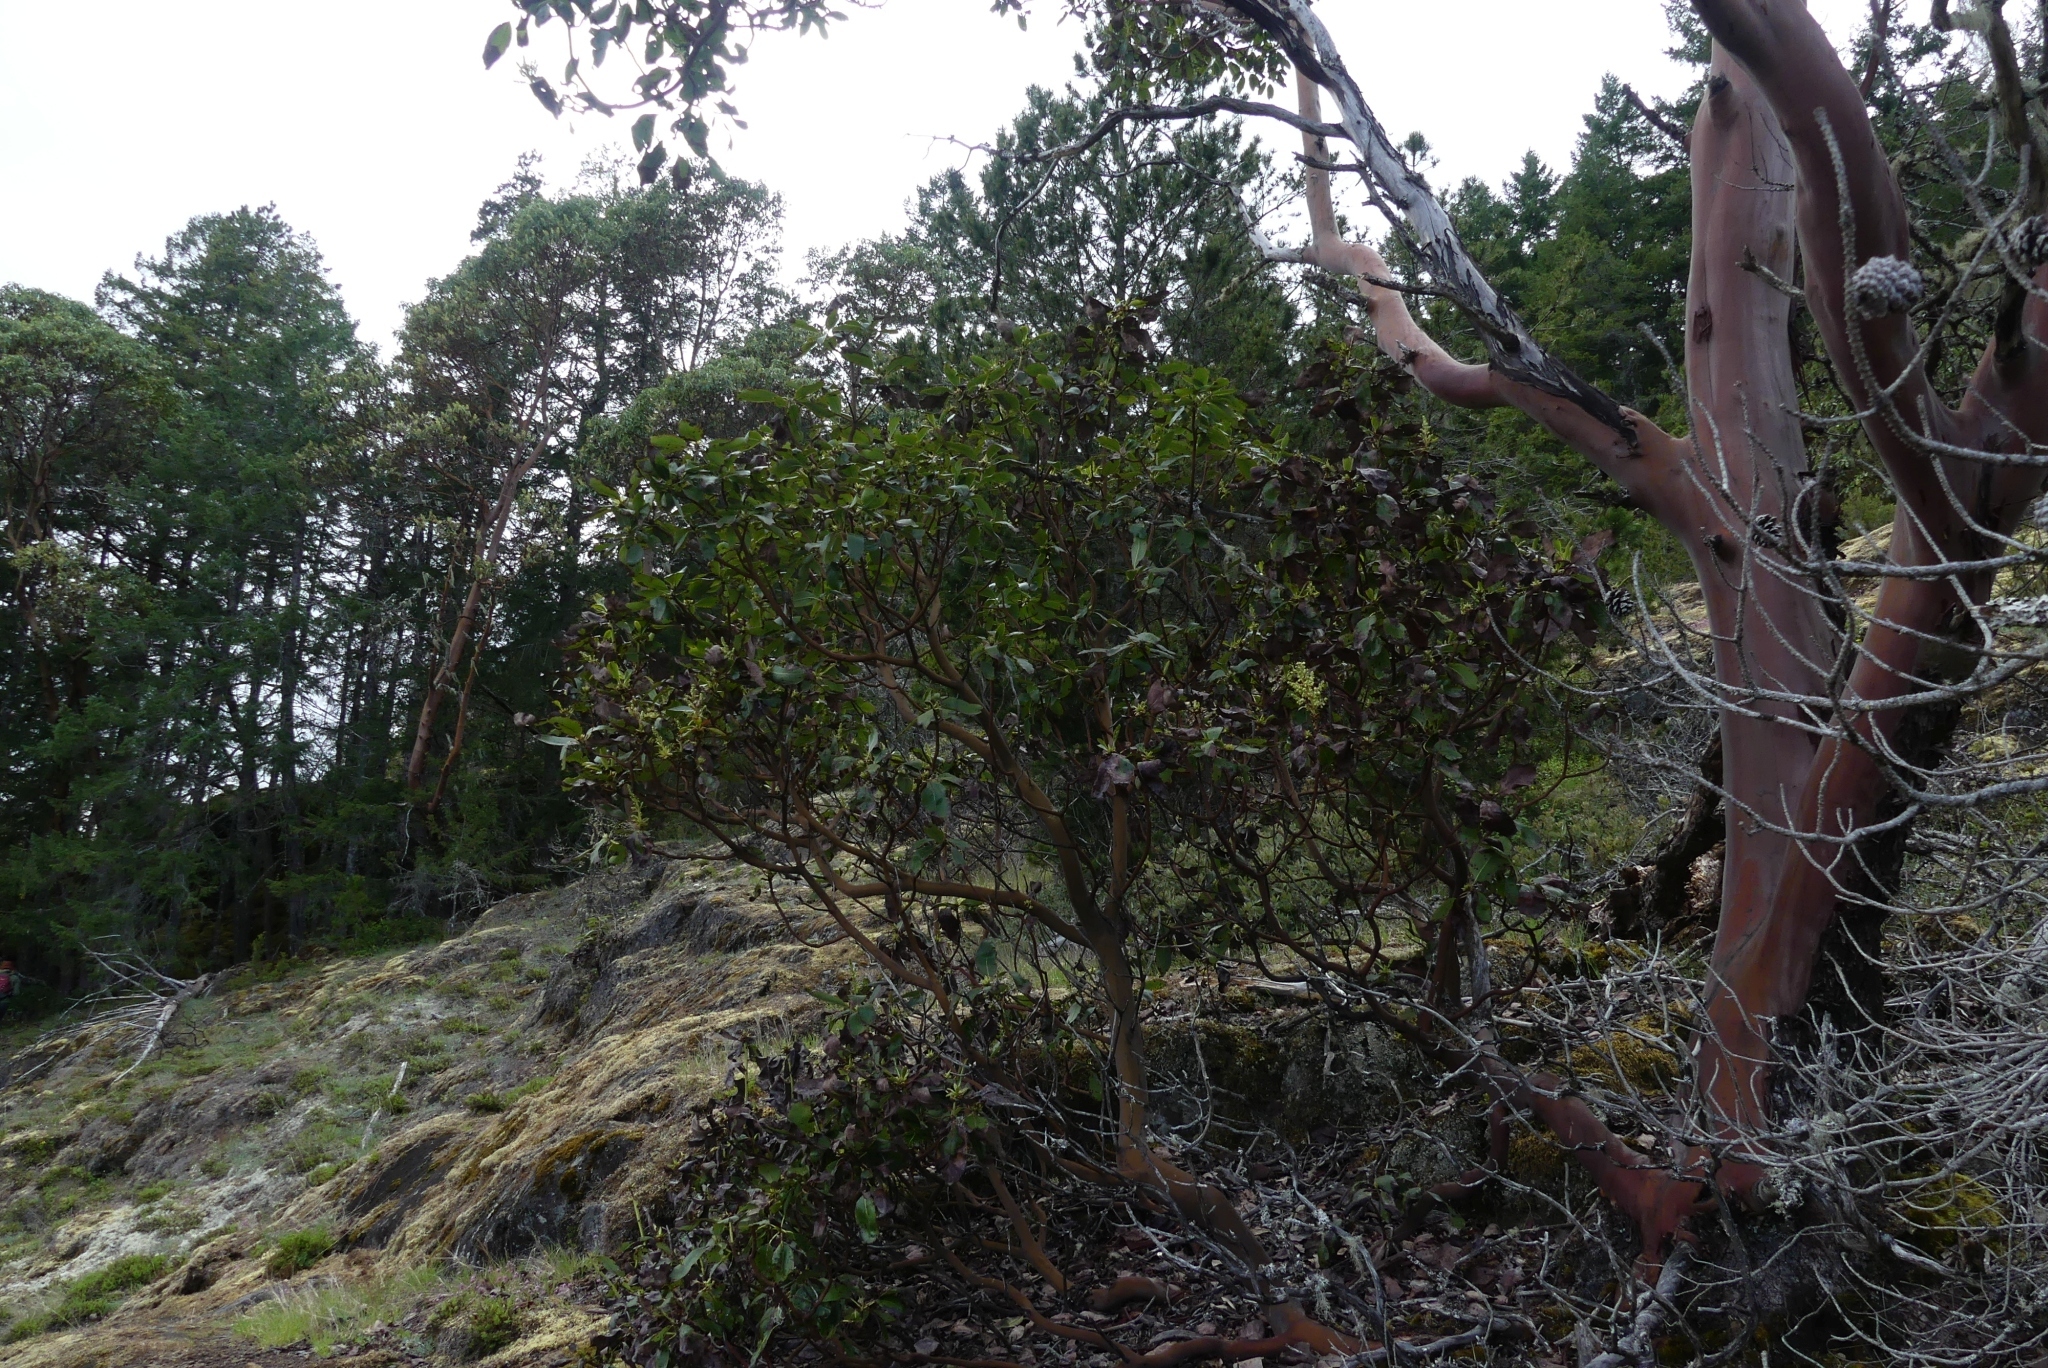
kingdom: Plantae
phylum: Tracheophyta
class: Magnoliopsida
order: Ericales
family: Ericaceae
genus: Arbutus
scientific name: Arbutus menziesii
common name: Pacific madrone
